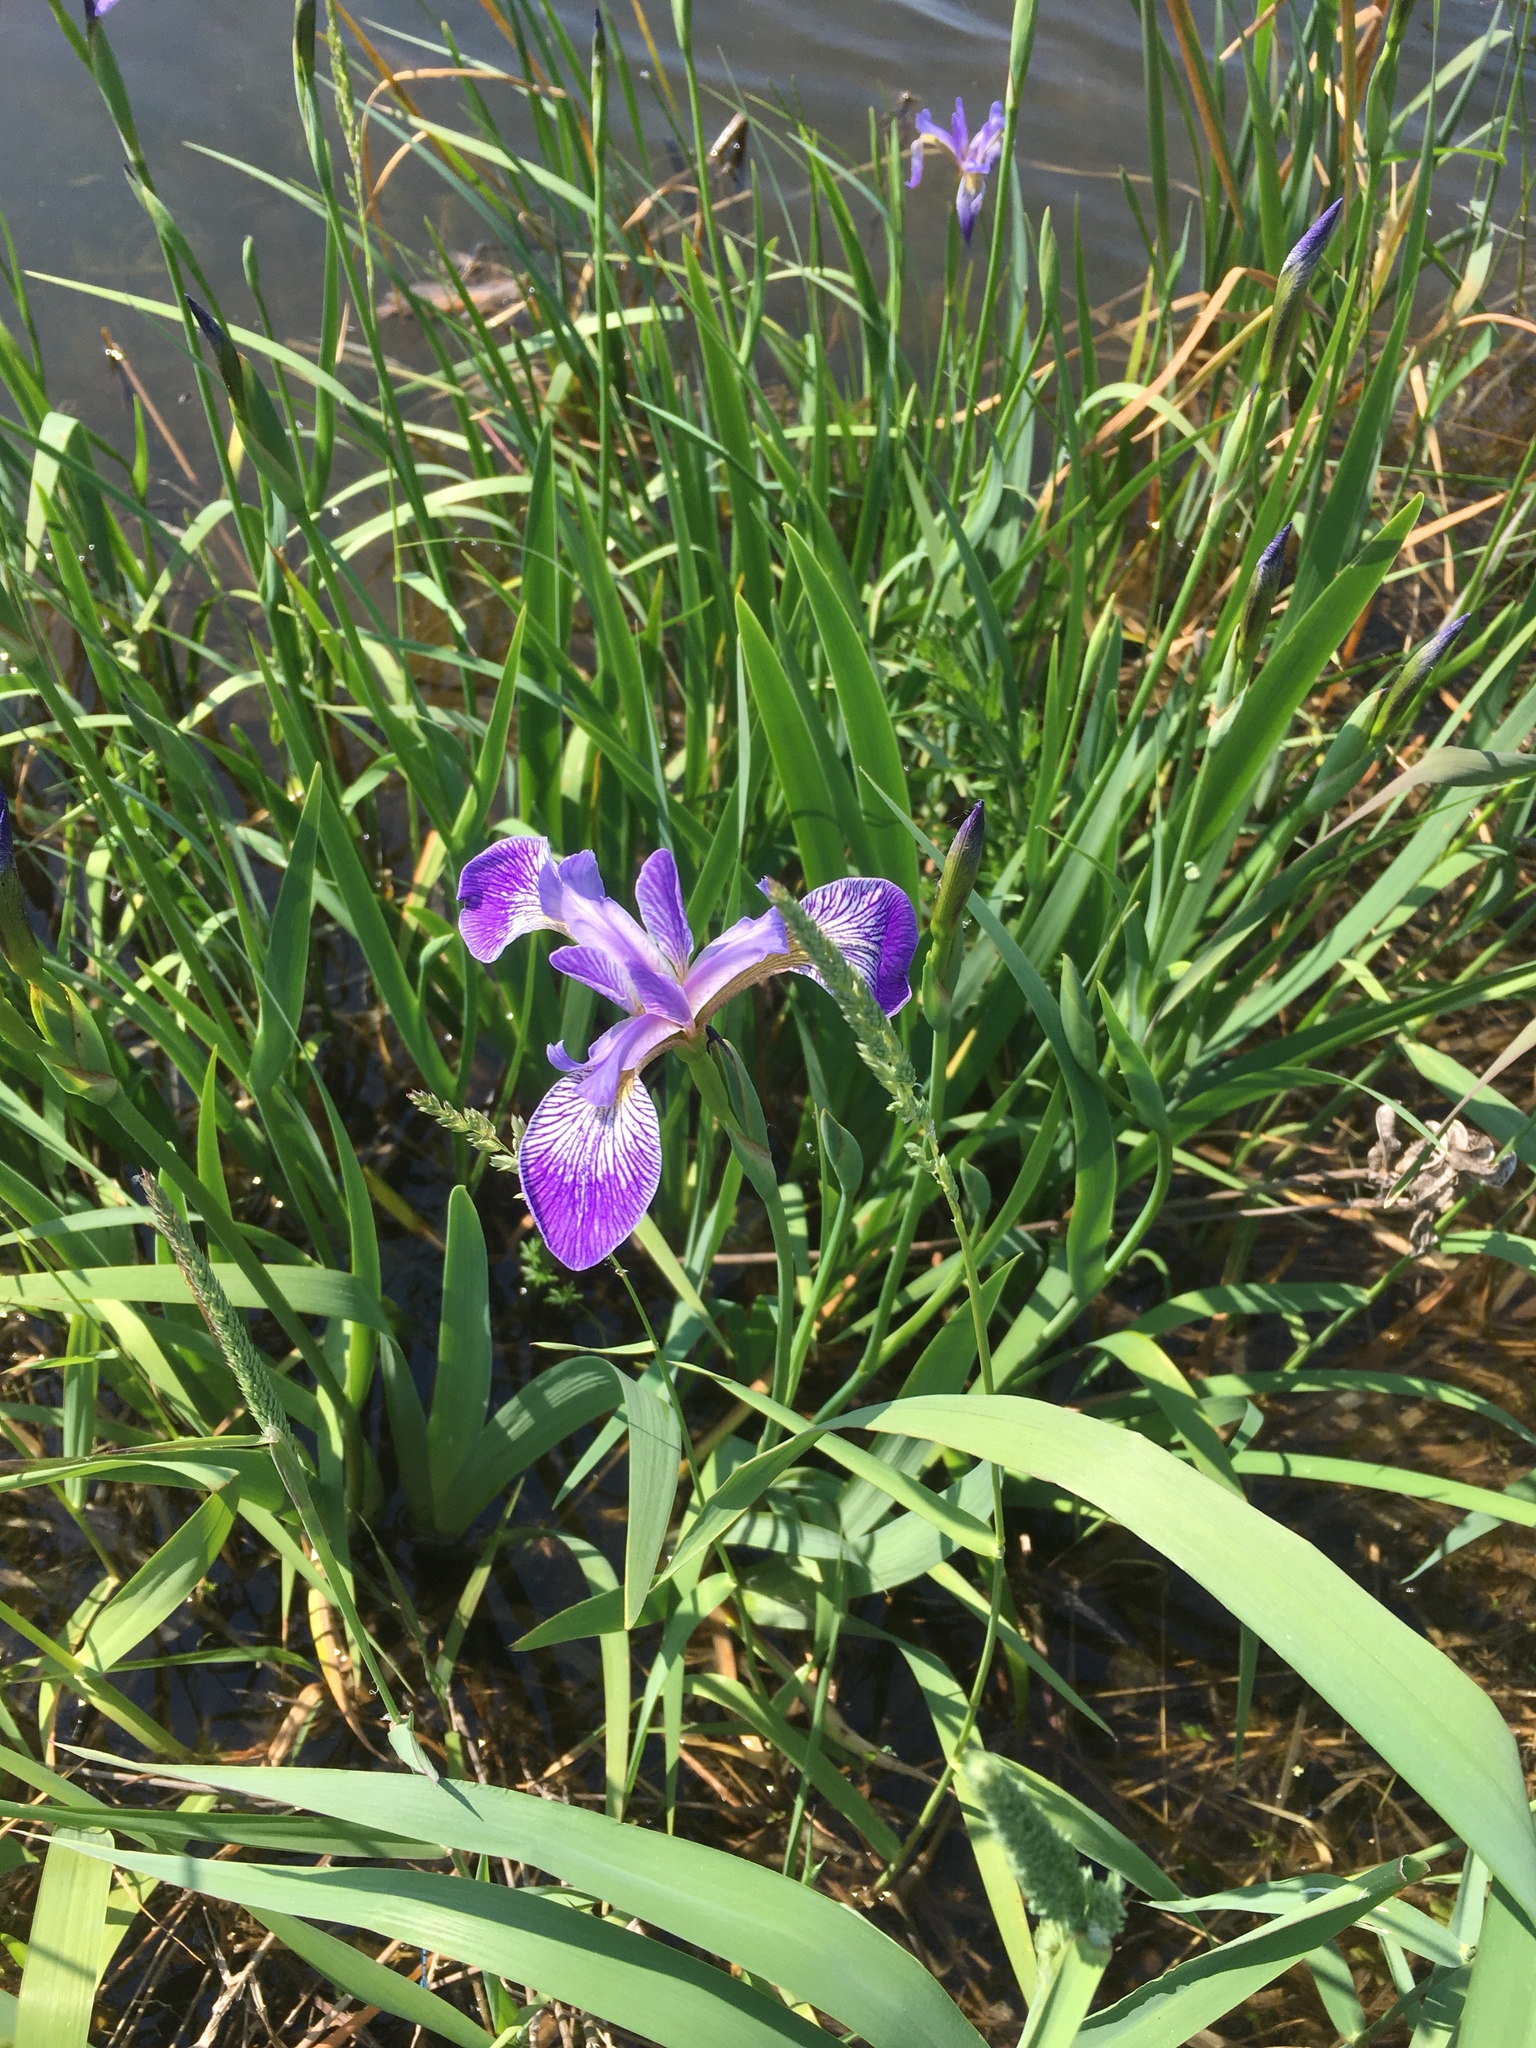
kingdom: Plantae
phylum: Tracheophyta
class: Liliopsida
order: Asparagales
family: Iridaceae
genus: Iris
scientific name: Iris versicolor
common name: Purple iris
